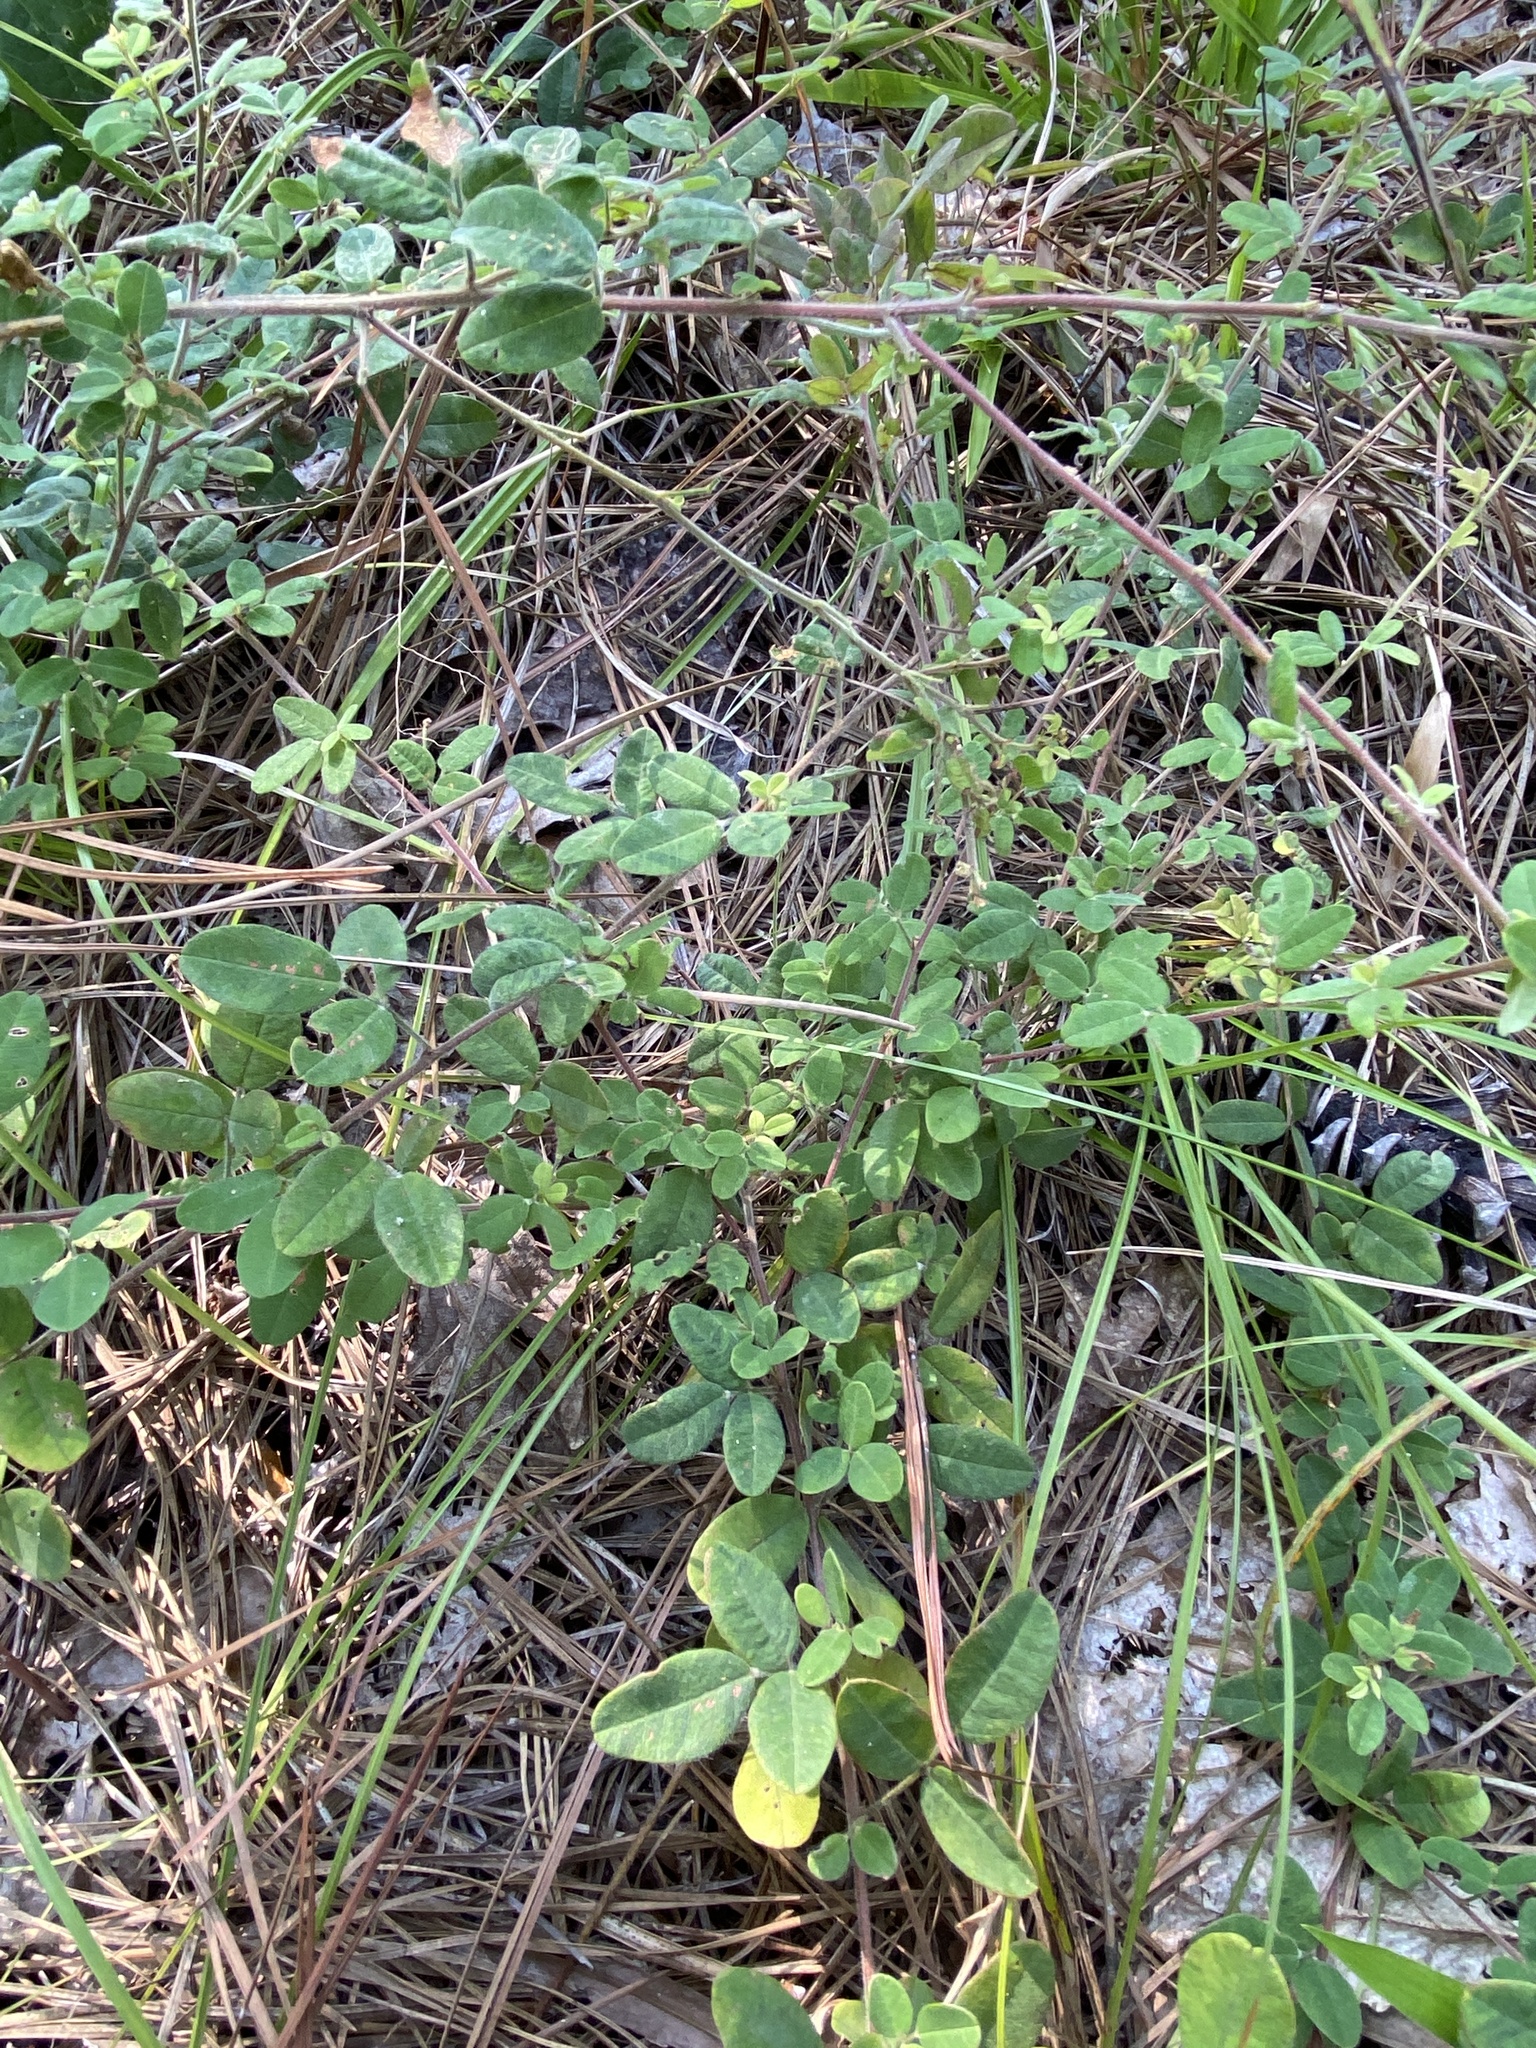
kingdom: Plantae
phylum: Tracheophyta
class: Magnoliopsida
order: Fabales
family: Fabaceae
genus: Lespedeza
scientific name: Lespedeza procumbens
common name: Downy trailing bush-clover
